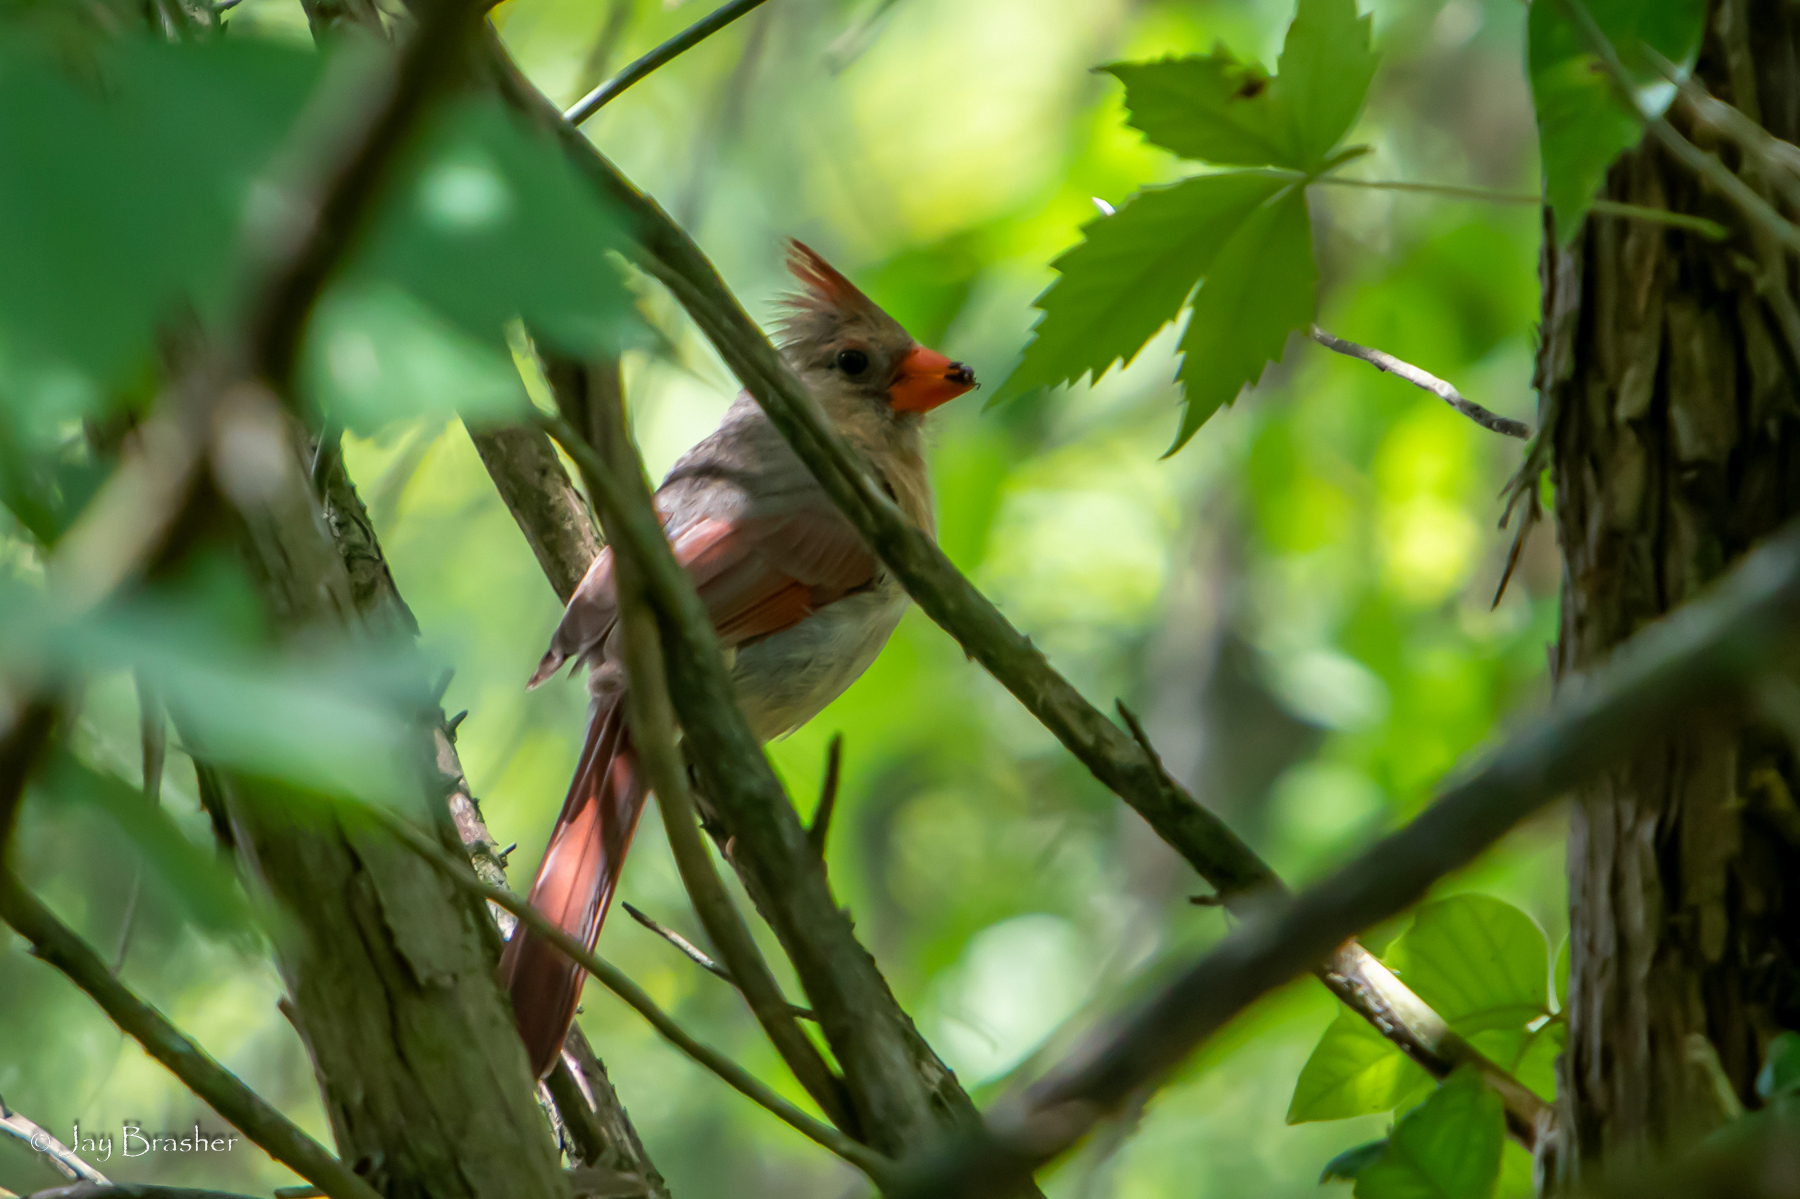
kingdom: Animalia
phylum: Chordata
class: Aves
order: Passeriformes
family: Cardinalidae
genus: Cardinalis
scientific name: Cardinalis cardinalis
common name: Northern cardinal
